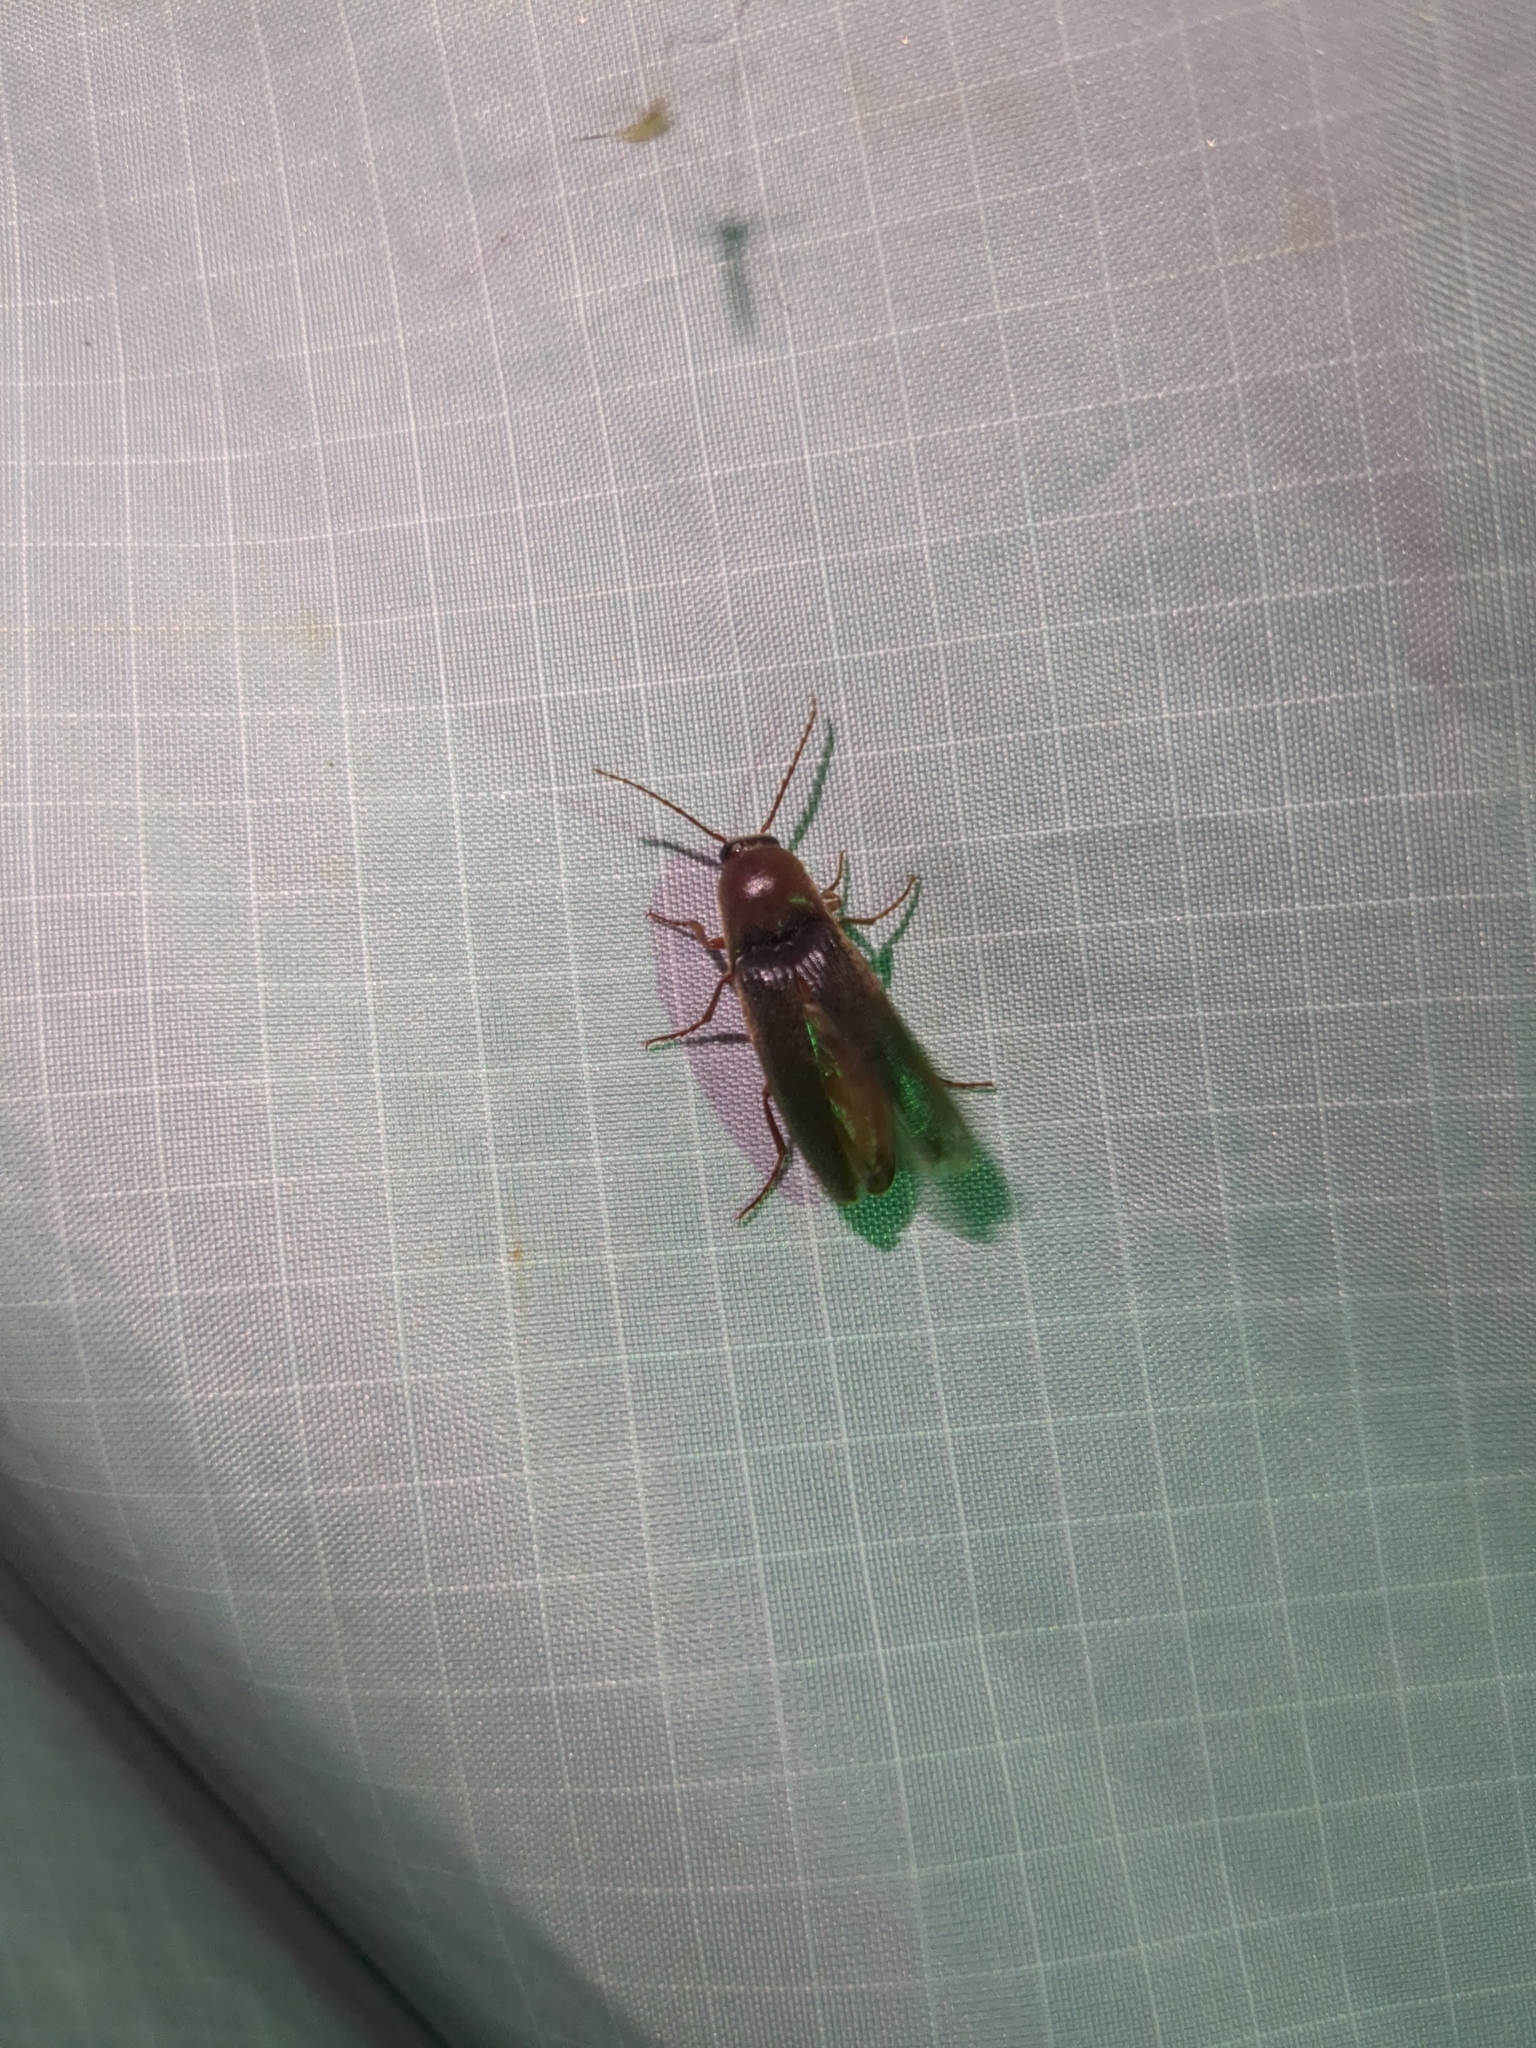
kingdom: Animalia
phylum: Arthropoda
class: Insecta
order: Coleoptera
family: Elateridae
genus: Diplostethus
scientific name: Diplostethus
